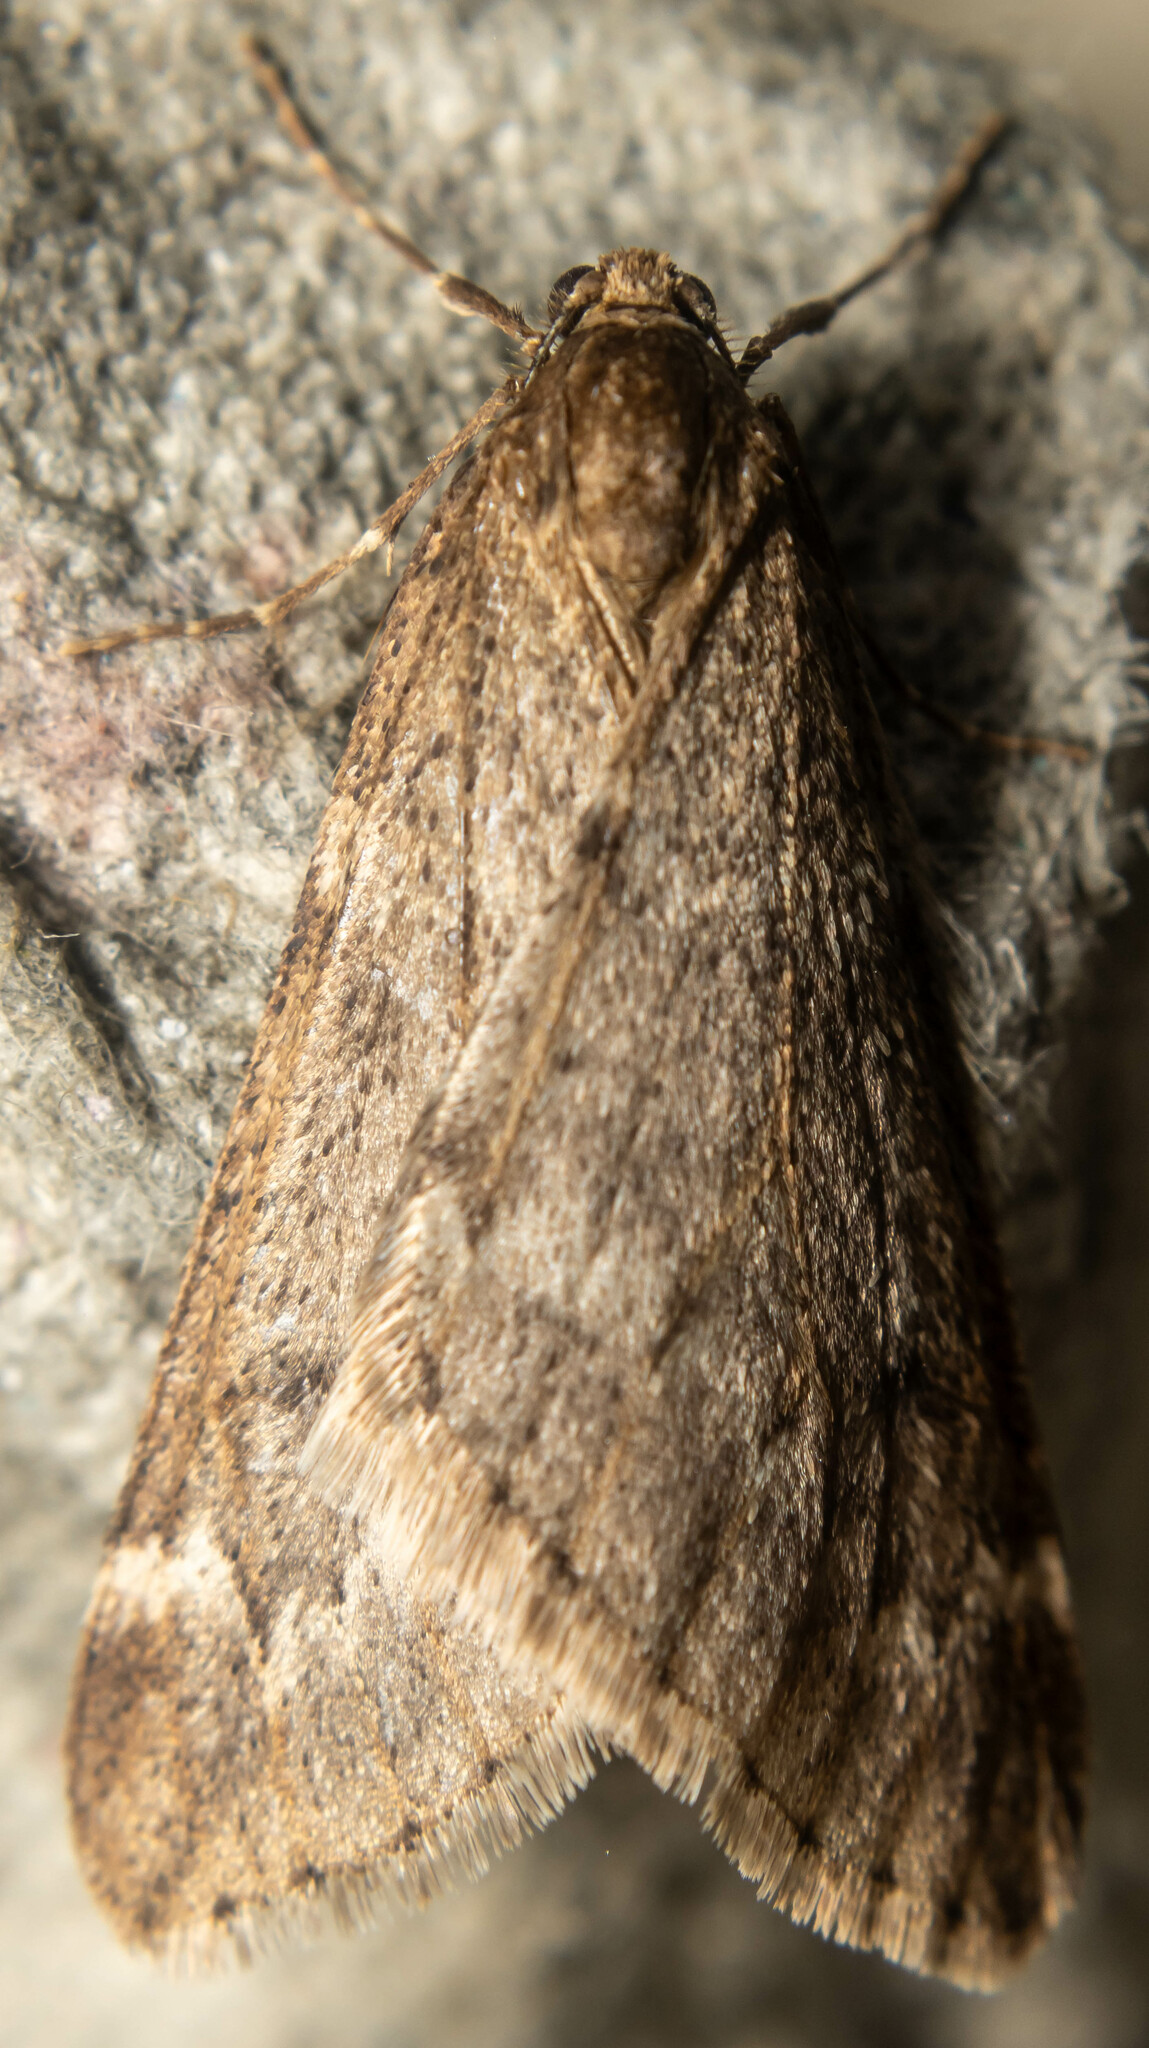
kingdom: Animalia
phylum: Arthropoda
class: Insecta
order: Lepidoptera
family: Geometridae
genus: Alsophila
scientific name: Alsophila aescularia
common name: March moth
